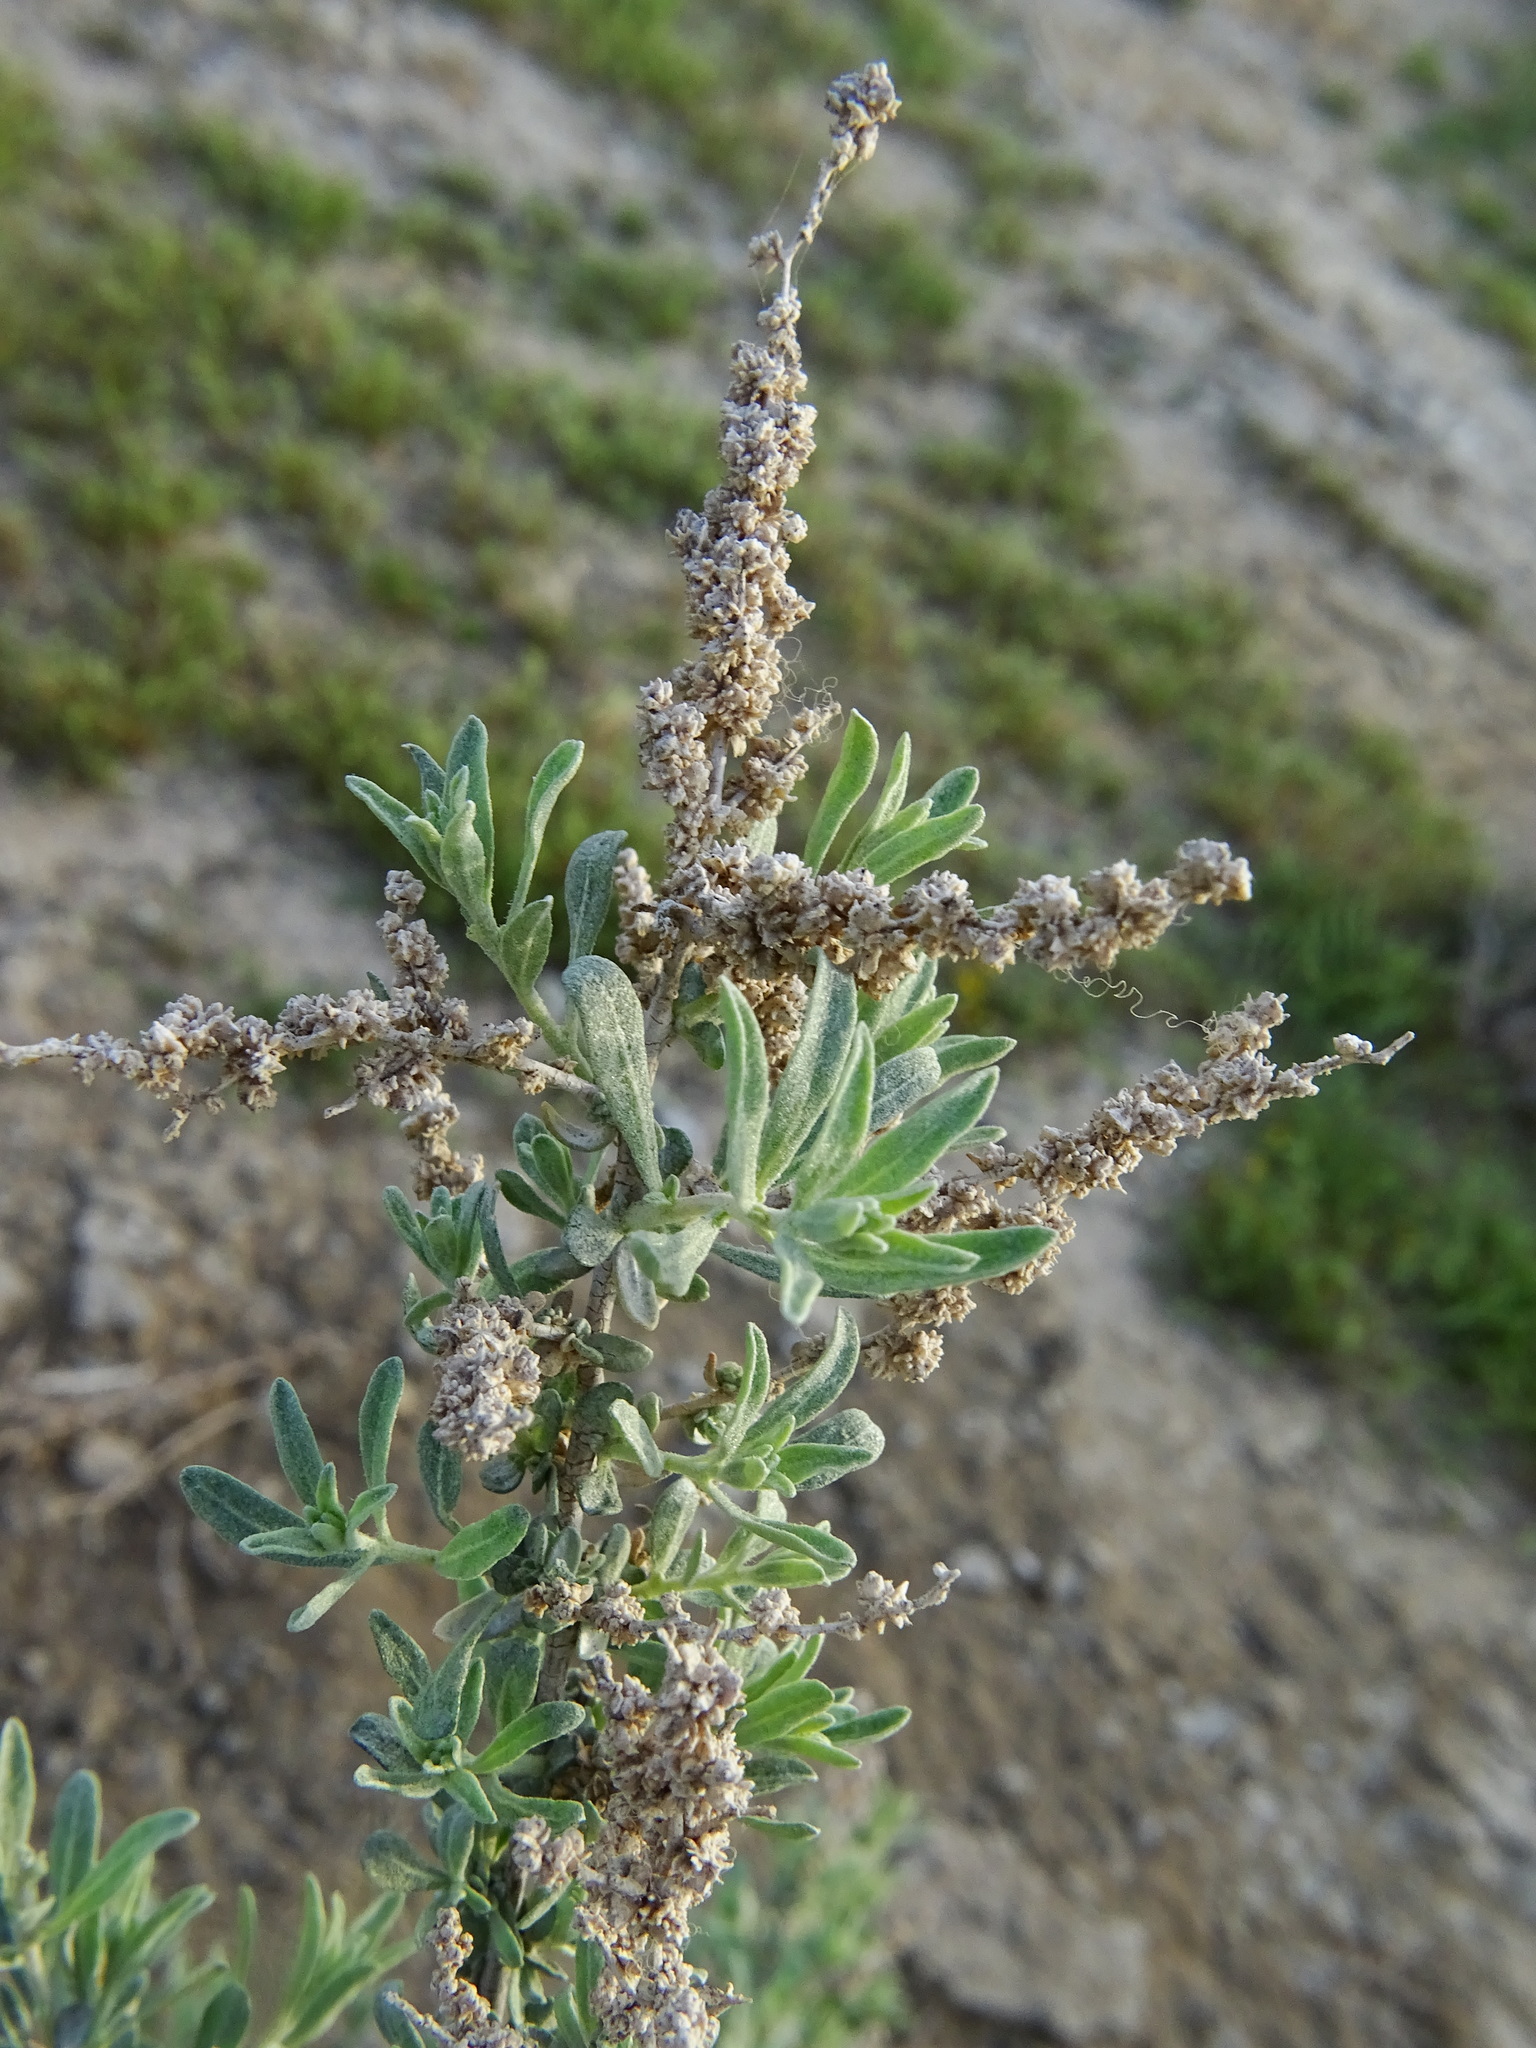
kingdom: Plantae
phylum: Tracheophyta
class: Magnoliopsida
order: Caryophyllales
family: Amaranthaceae
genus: Atriplex
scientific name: Atriplex canescens
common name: Four-wing saltbush
